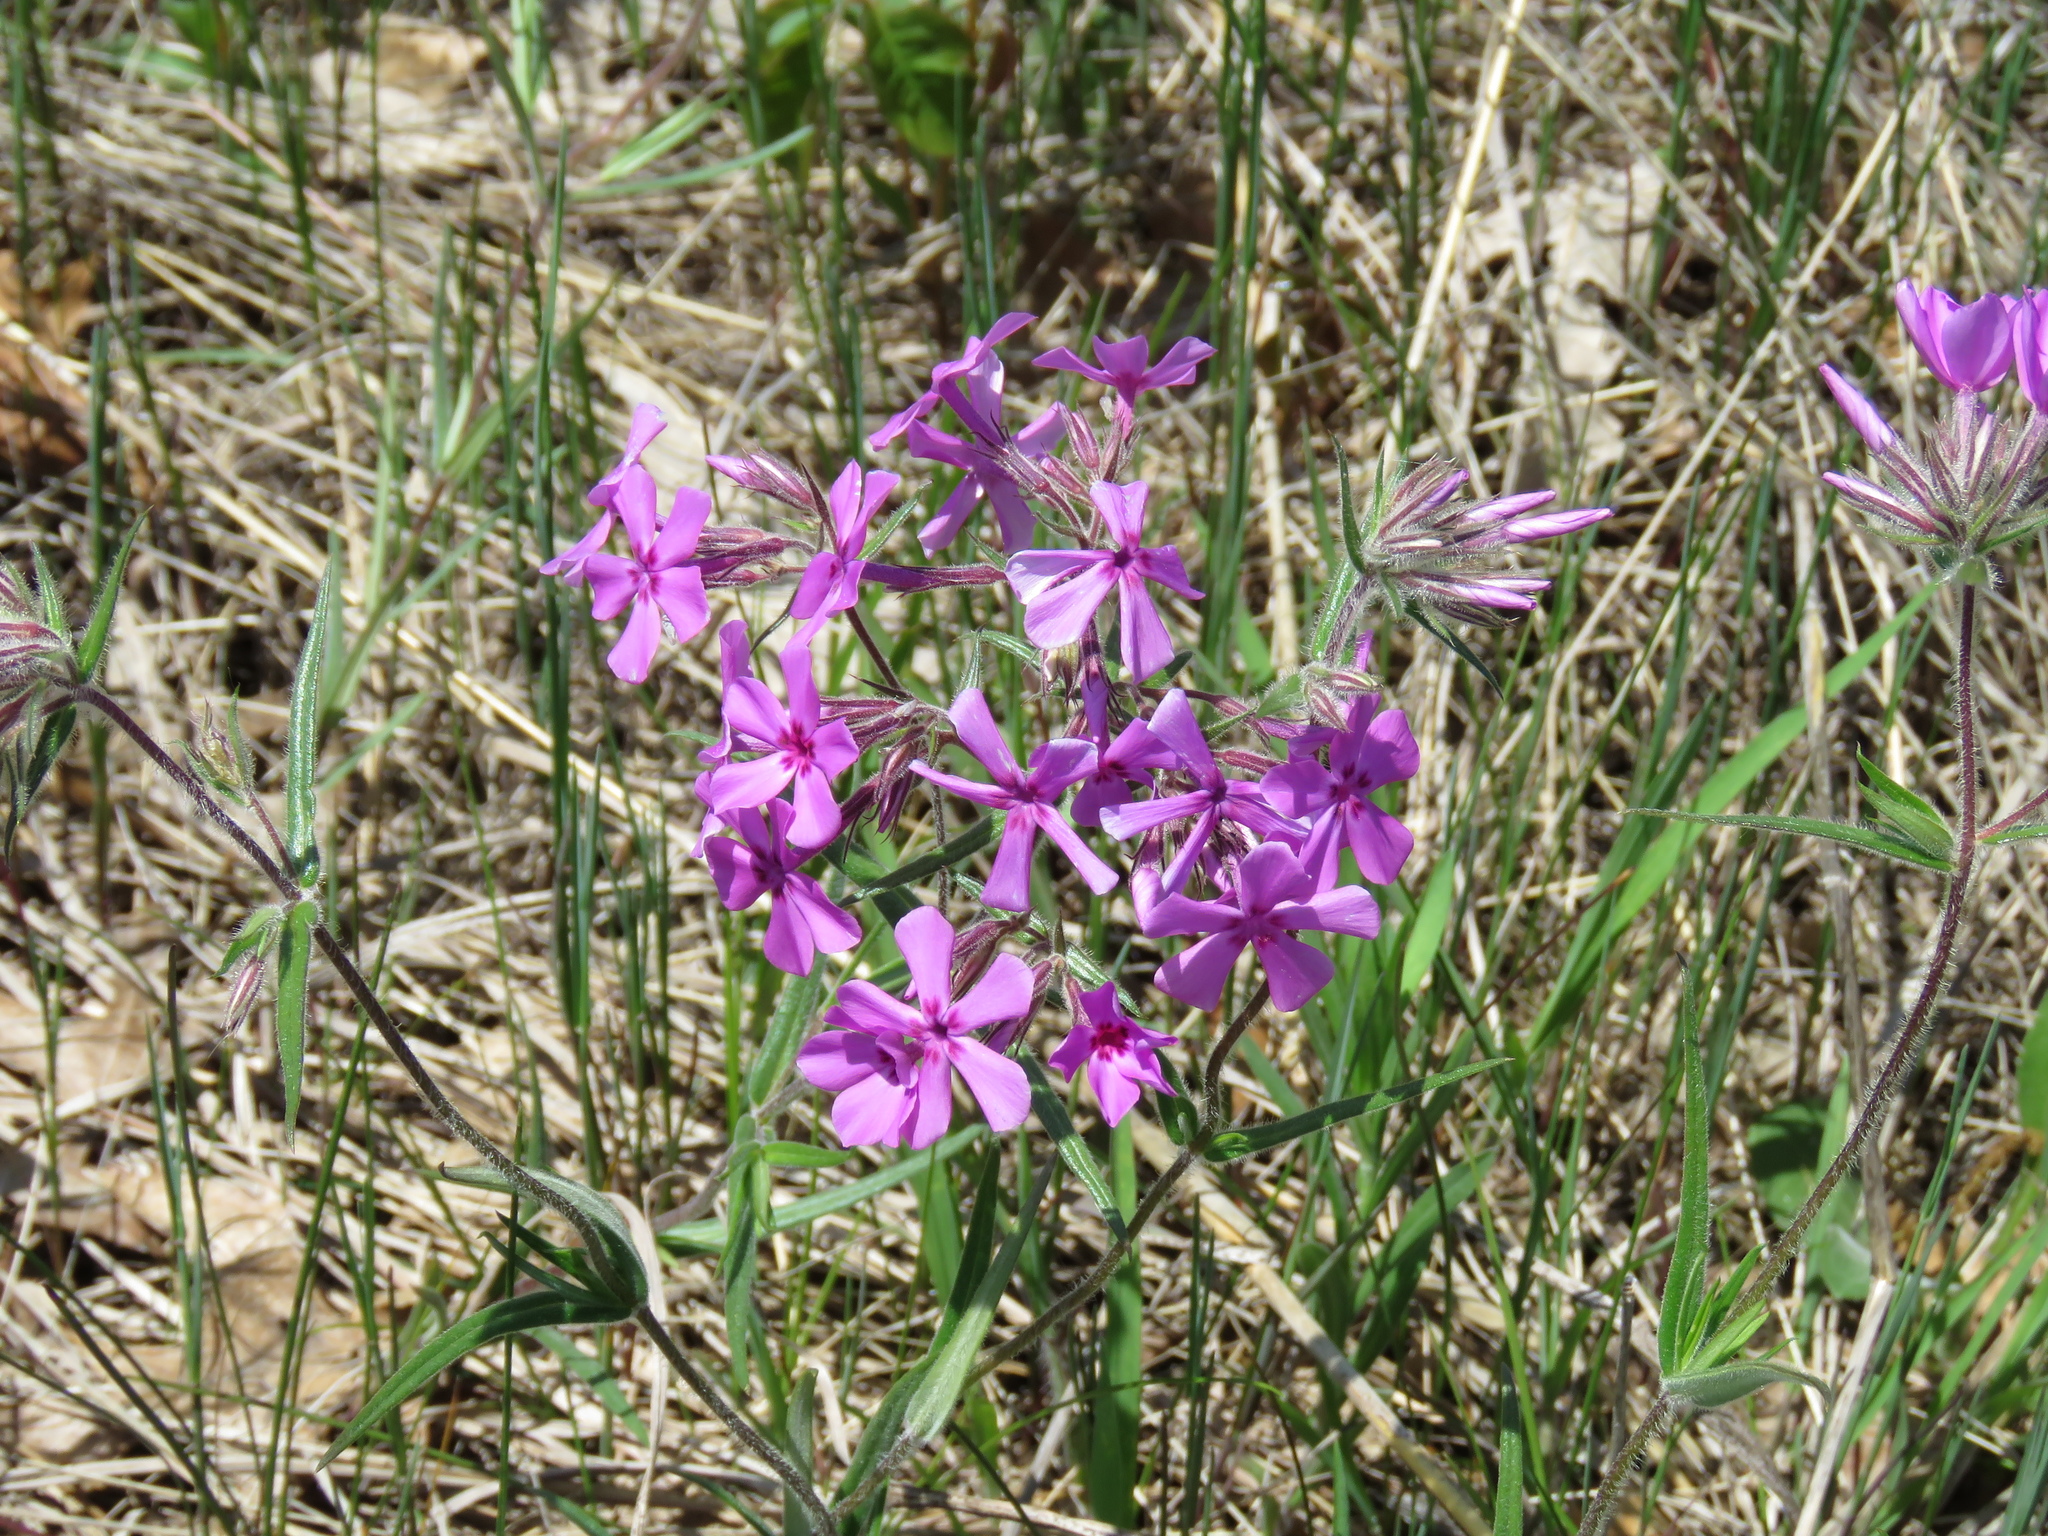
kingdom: Plantae
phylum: Tracheophyta
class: Magnoliopsida
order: Ericales
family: Polemoniaceae
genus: Phlox
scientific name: Phlox pilosa
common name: Prairie phlox
